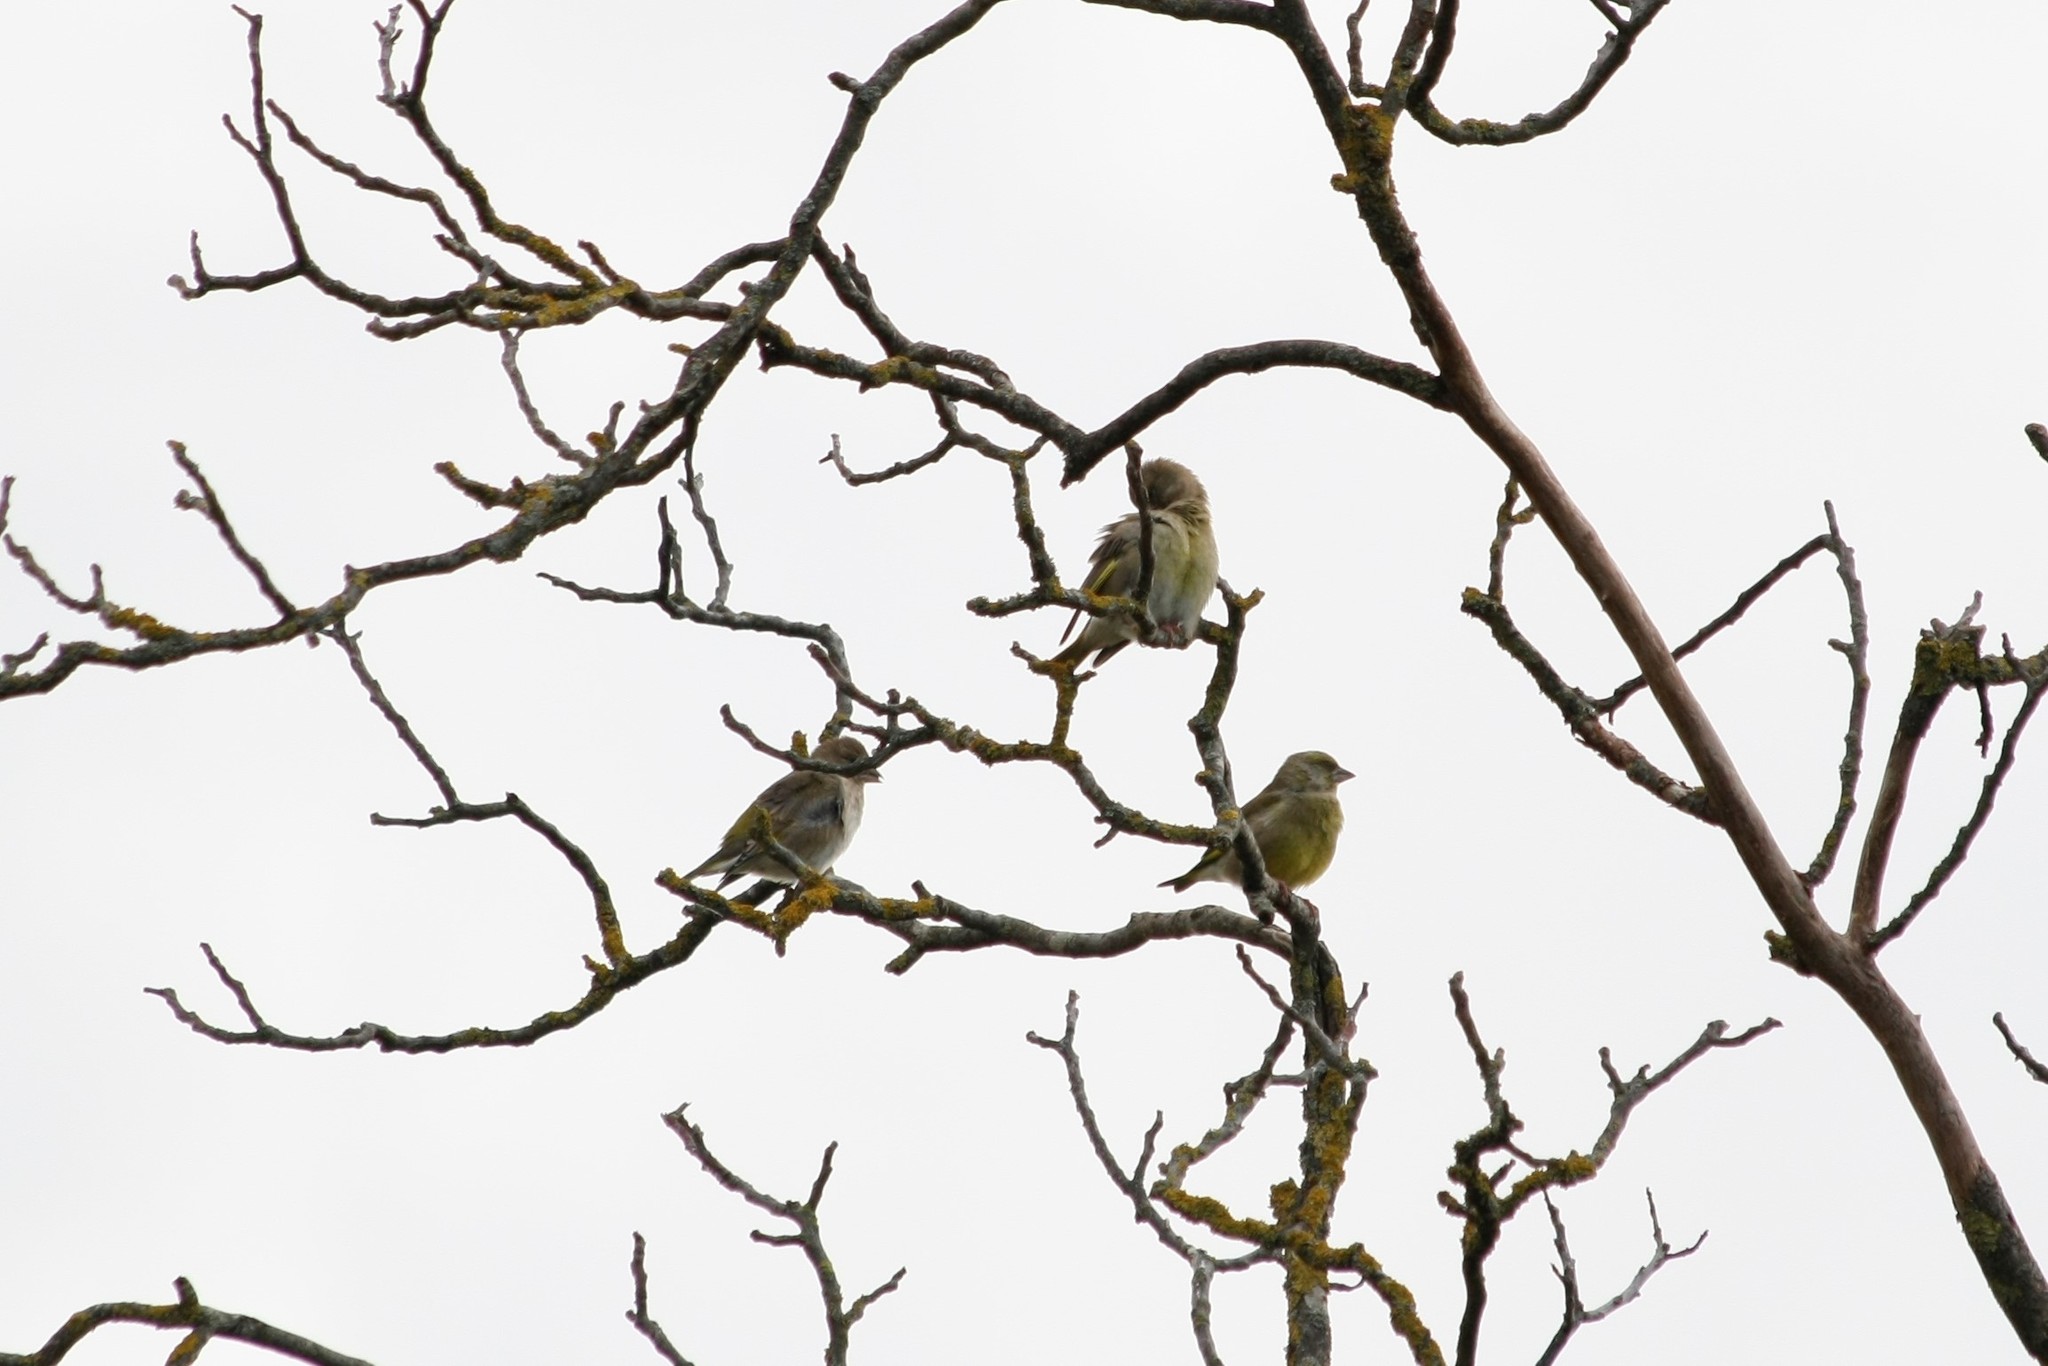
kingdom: Plantae
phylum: Tracheophyta
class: Liliopsida
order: Poales
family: Poaceae
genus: Chloris
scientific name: Chloris chloris
